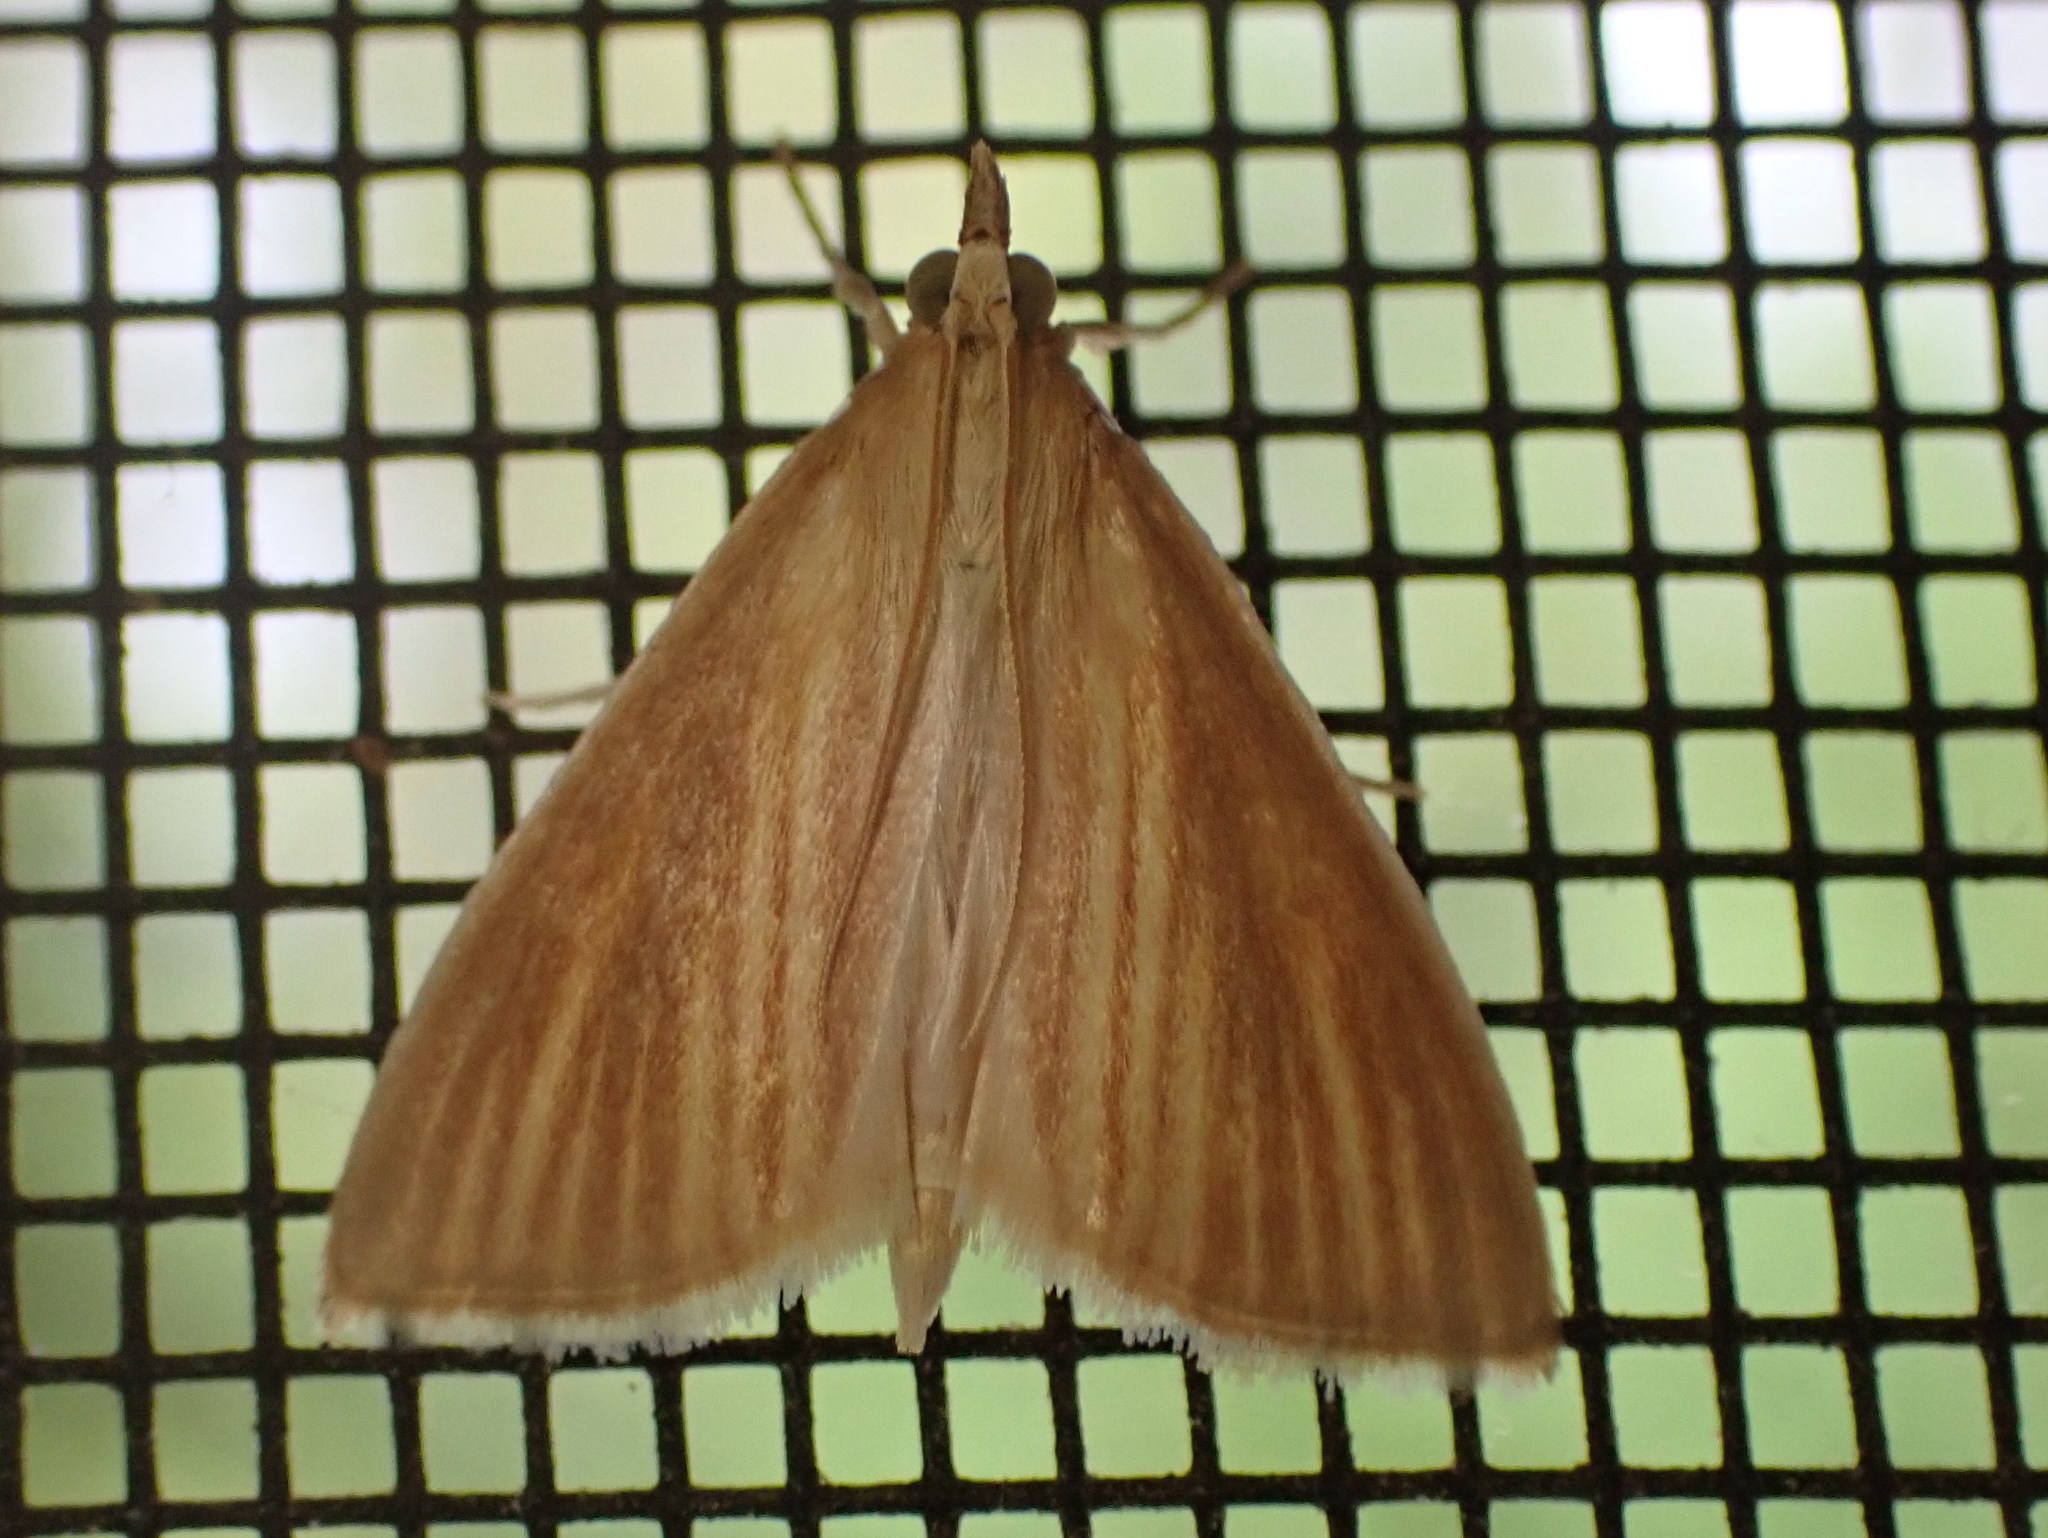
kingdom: Animalia
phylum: Arthropoda
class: Insecta
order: Lepidoptera
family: Crambidae
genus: Nascia
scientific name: Nascia acutellus
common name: Streaked orange moth
